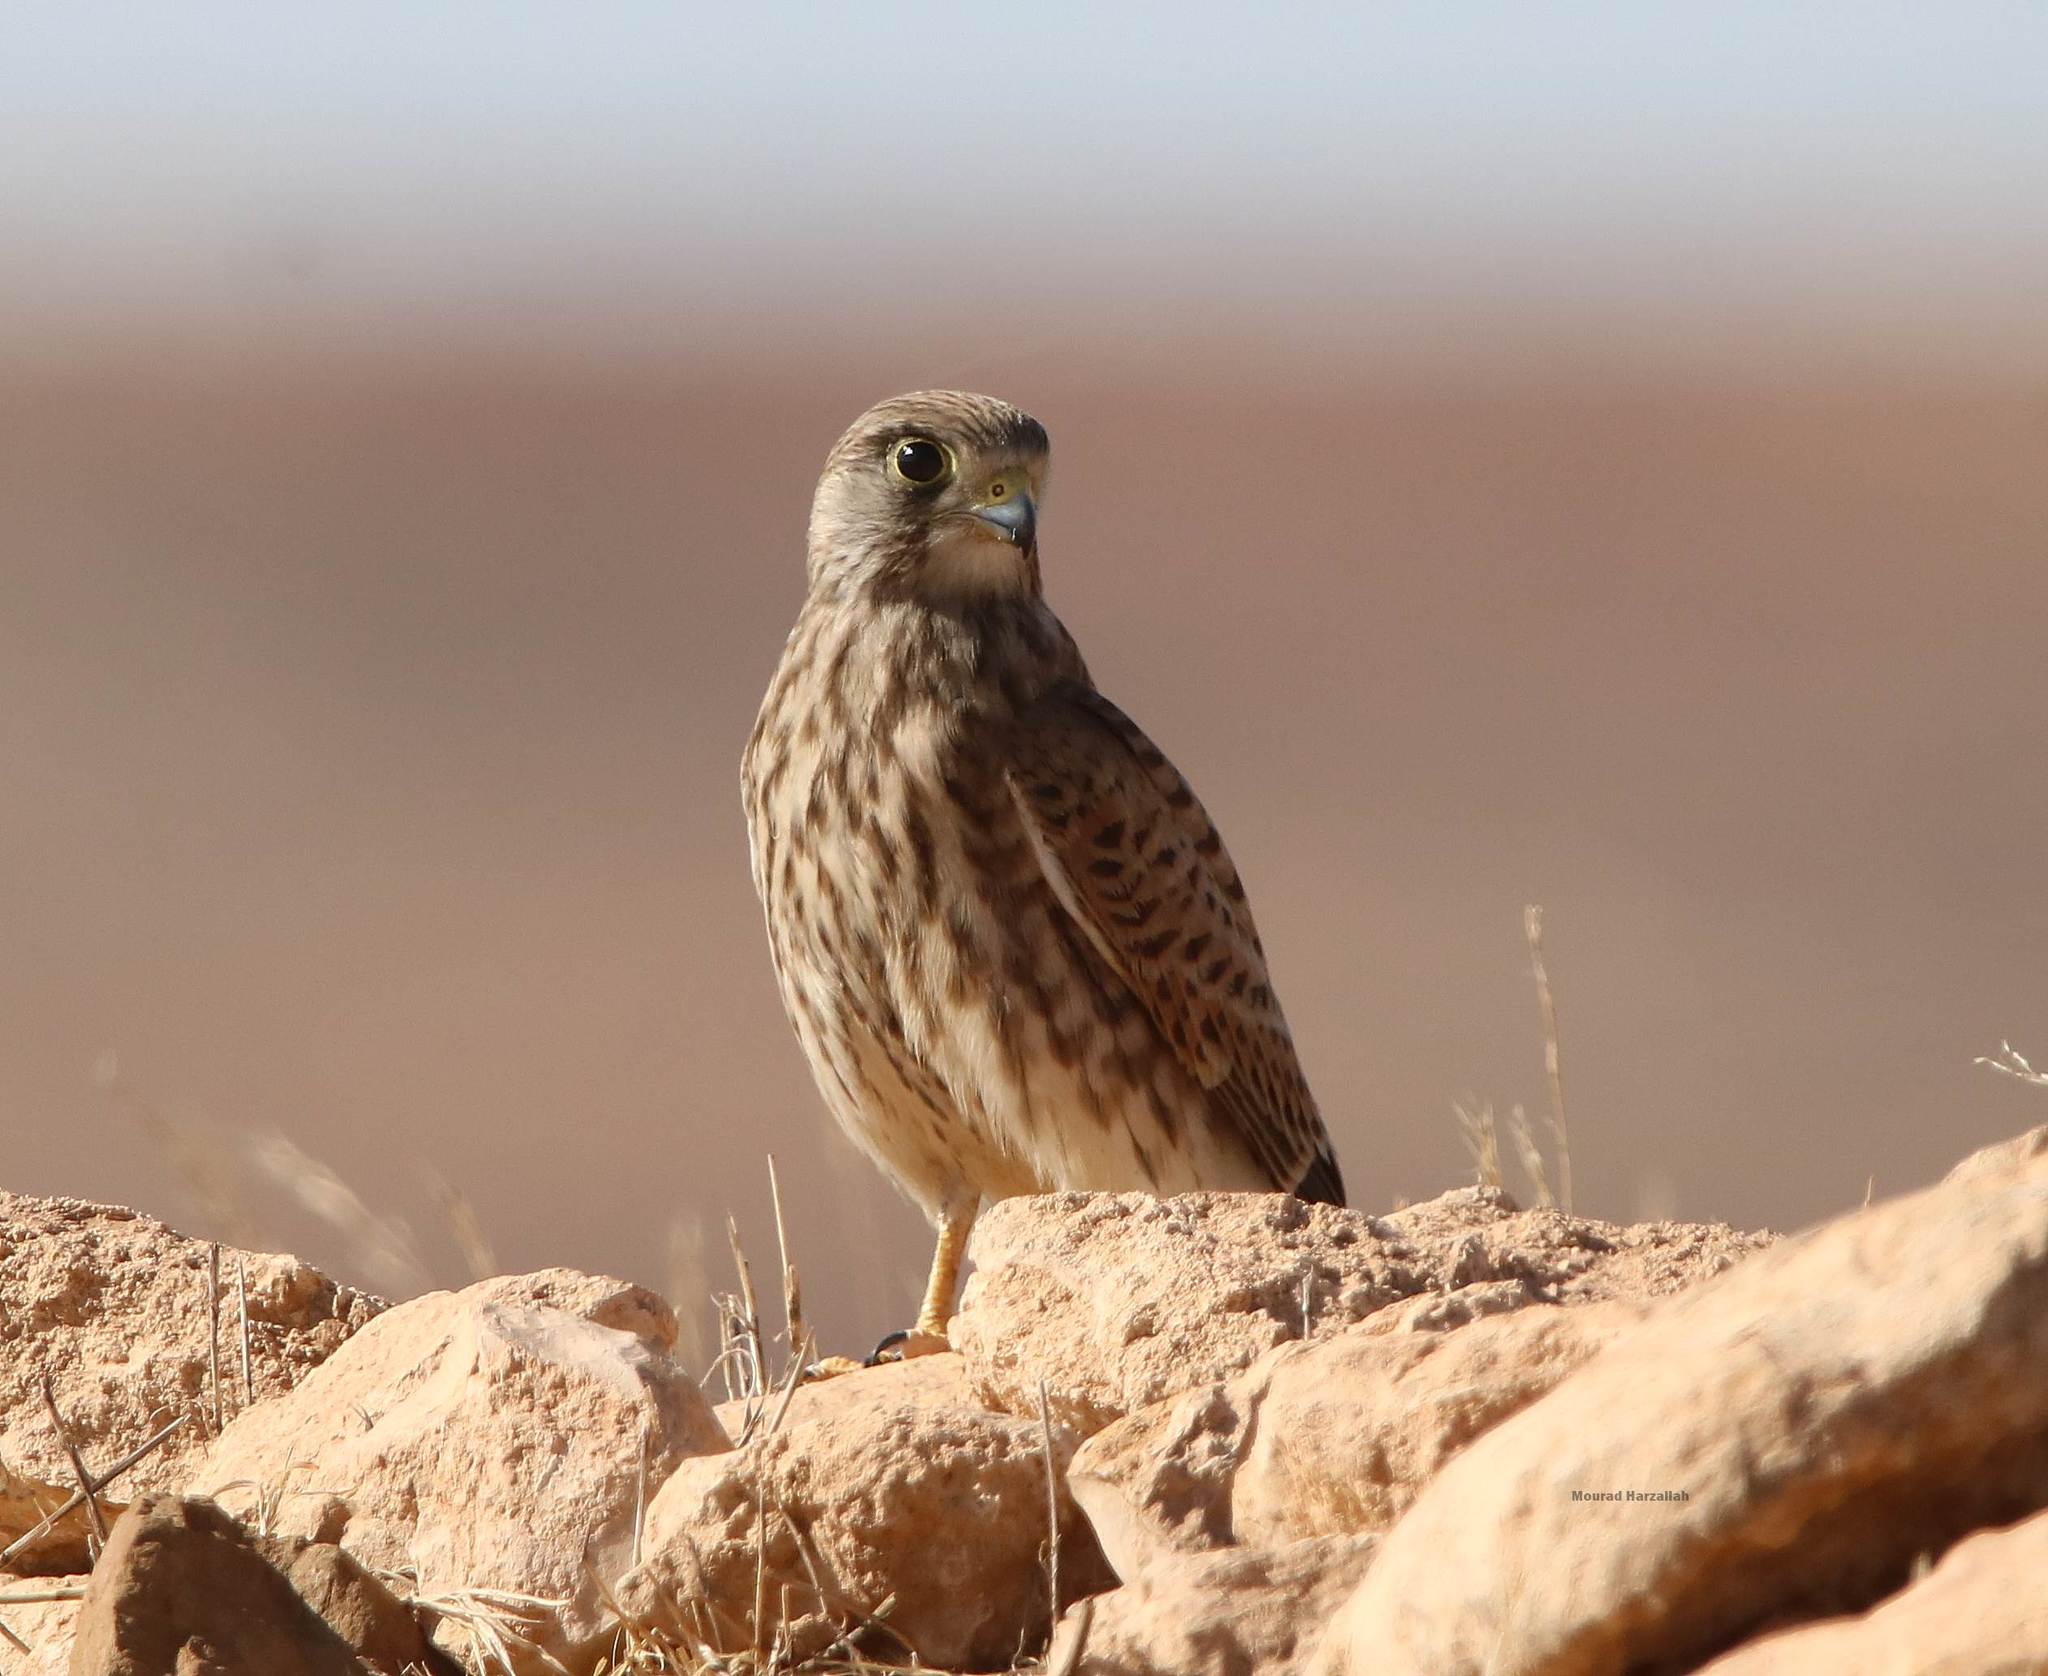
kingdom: Animalia
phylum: Chordata
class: Aves
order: Falconiformes
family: Falconidae
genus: Falco
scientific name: Falco tinnunculus
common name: Common kestrel
